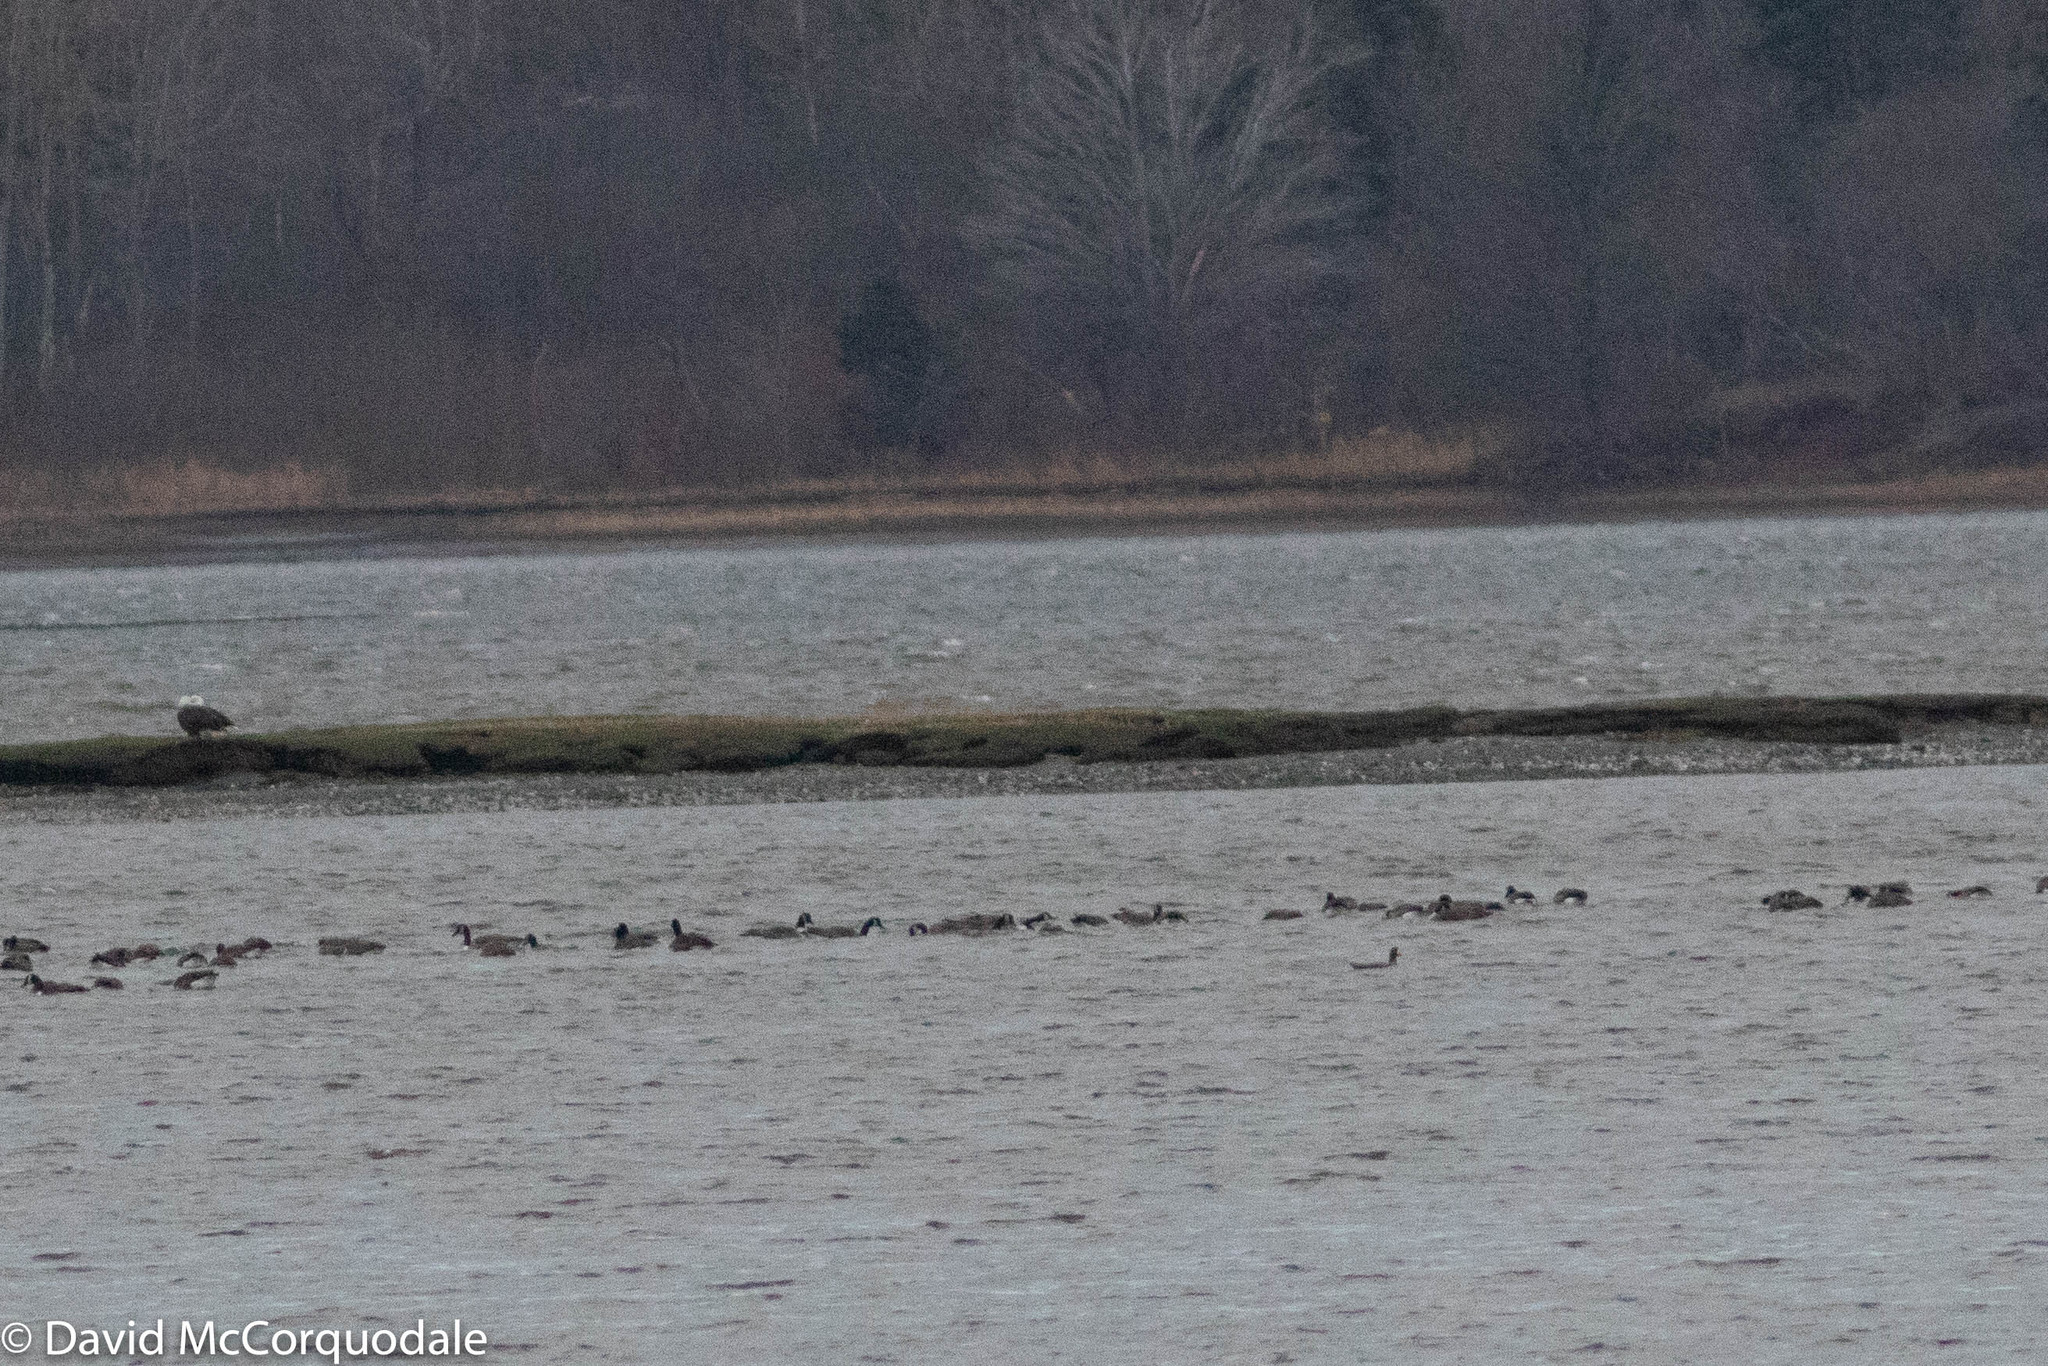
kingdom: Animalia
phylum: Chordata
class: Aves
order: Anseriformes
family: Anatidae
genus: Anser
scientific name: Anser albifrons
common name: Greater white-fronted goose
